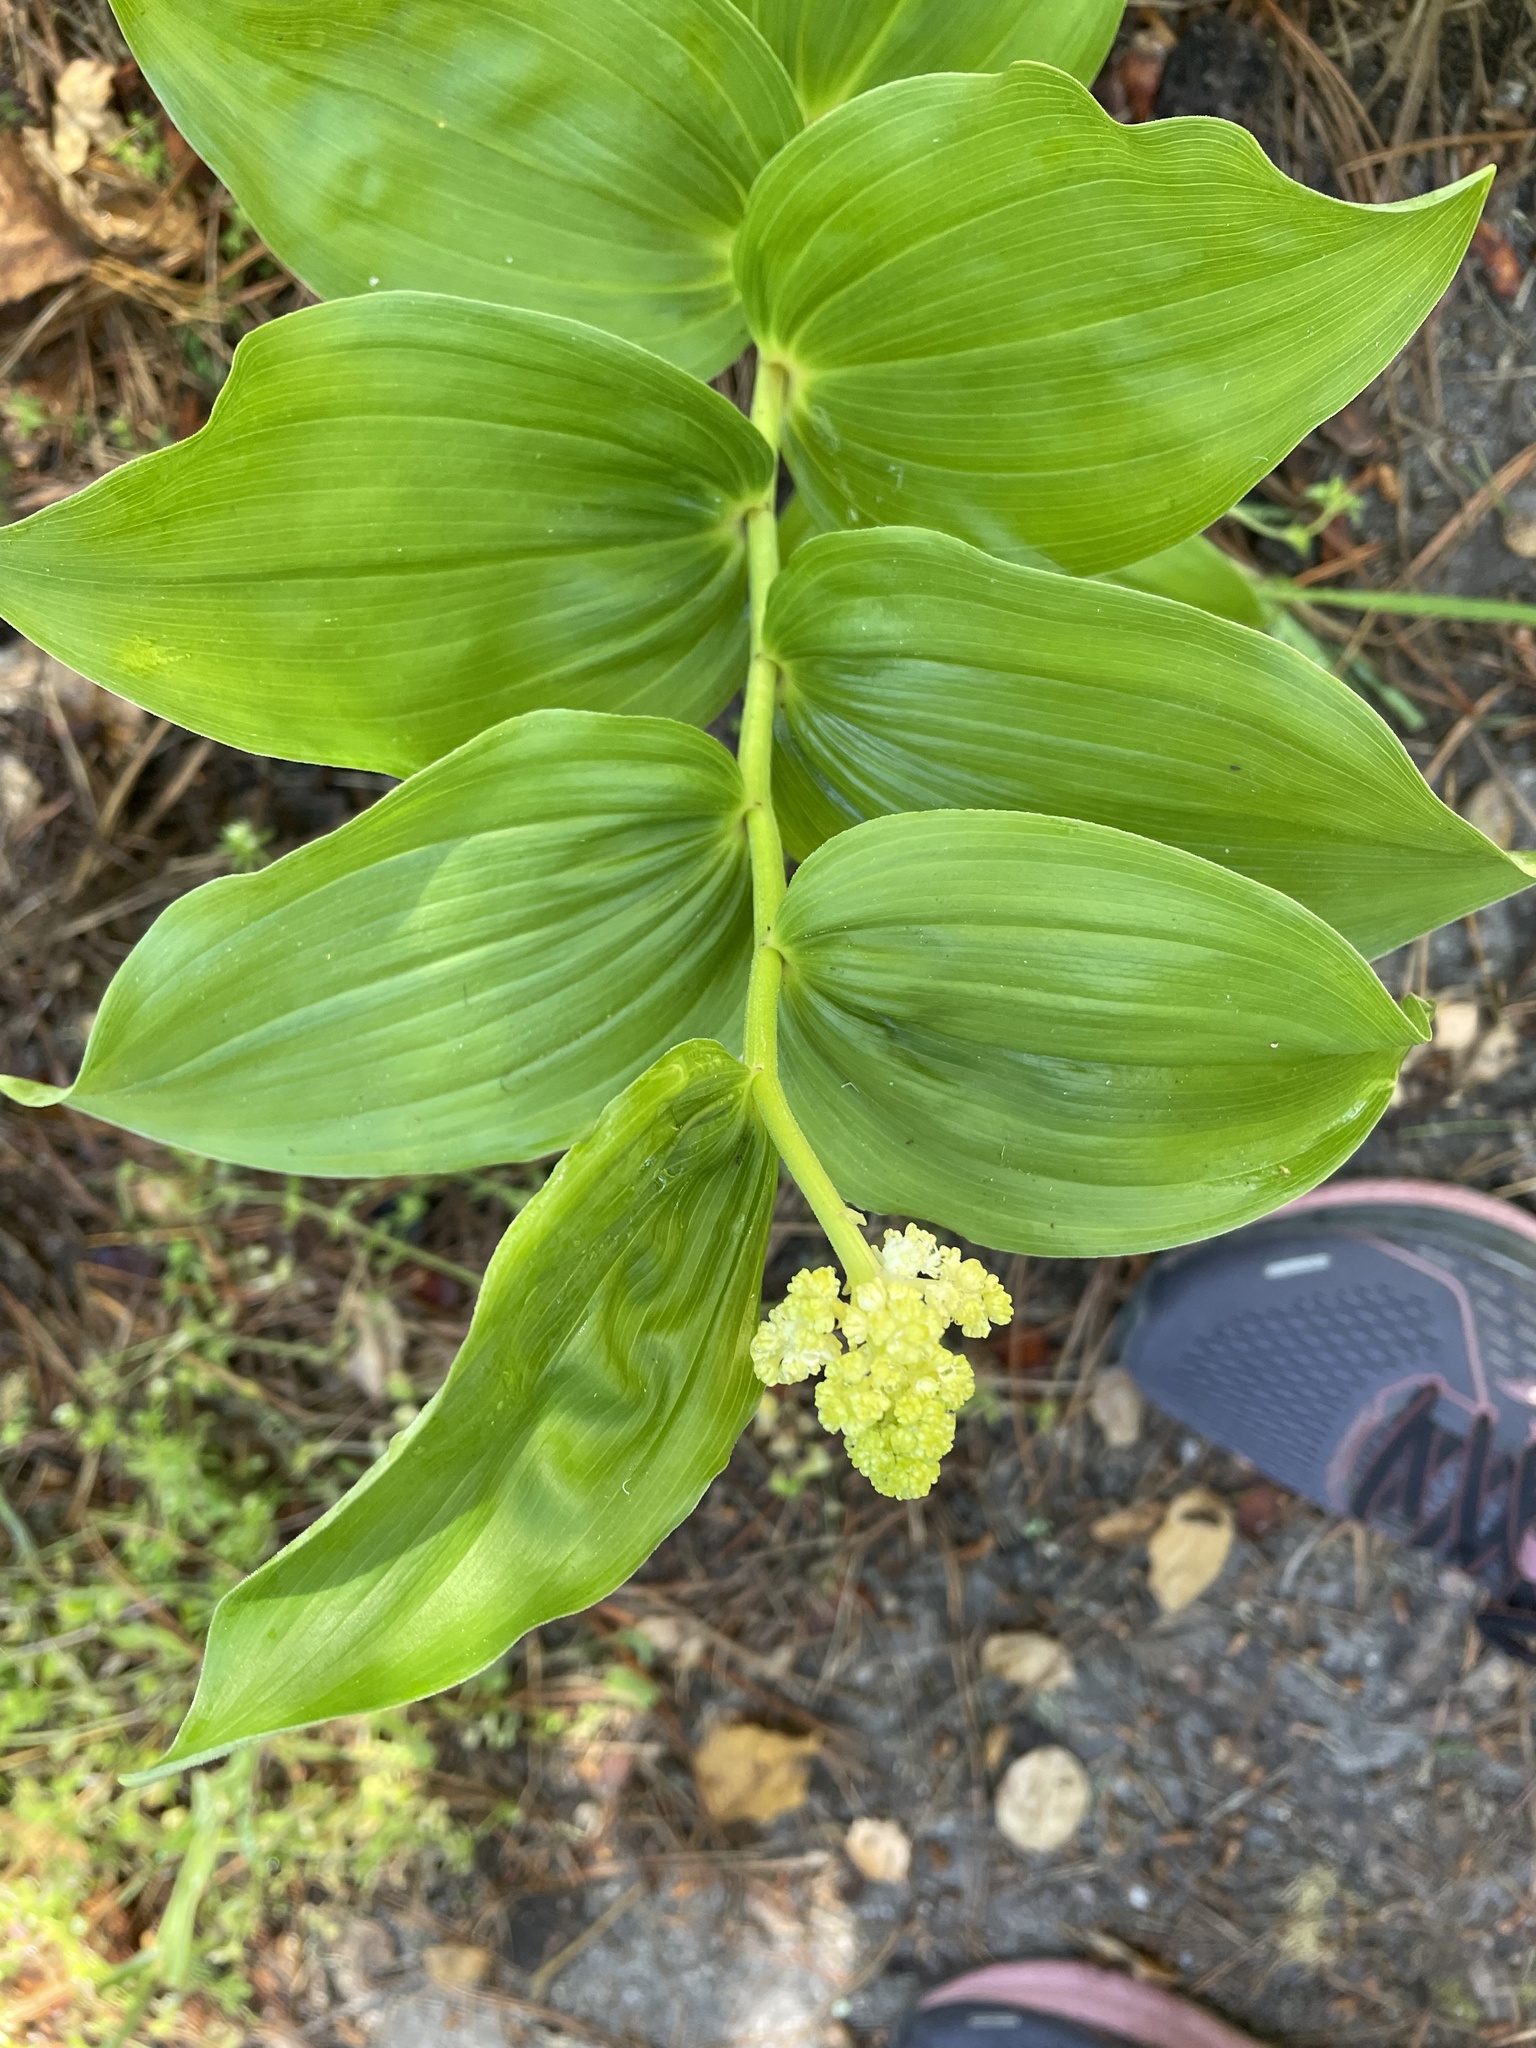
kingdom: Plantae
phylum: Tracheophyta
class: Liliopsida
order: Asparagales
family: Asparagaceae
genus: Maianthemum
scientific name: Maianthemum racemosum
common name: False spikenard
